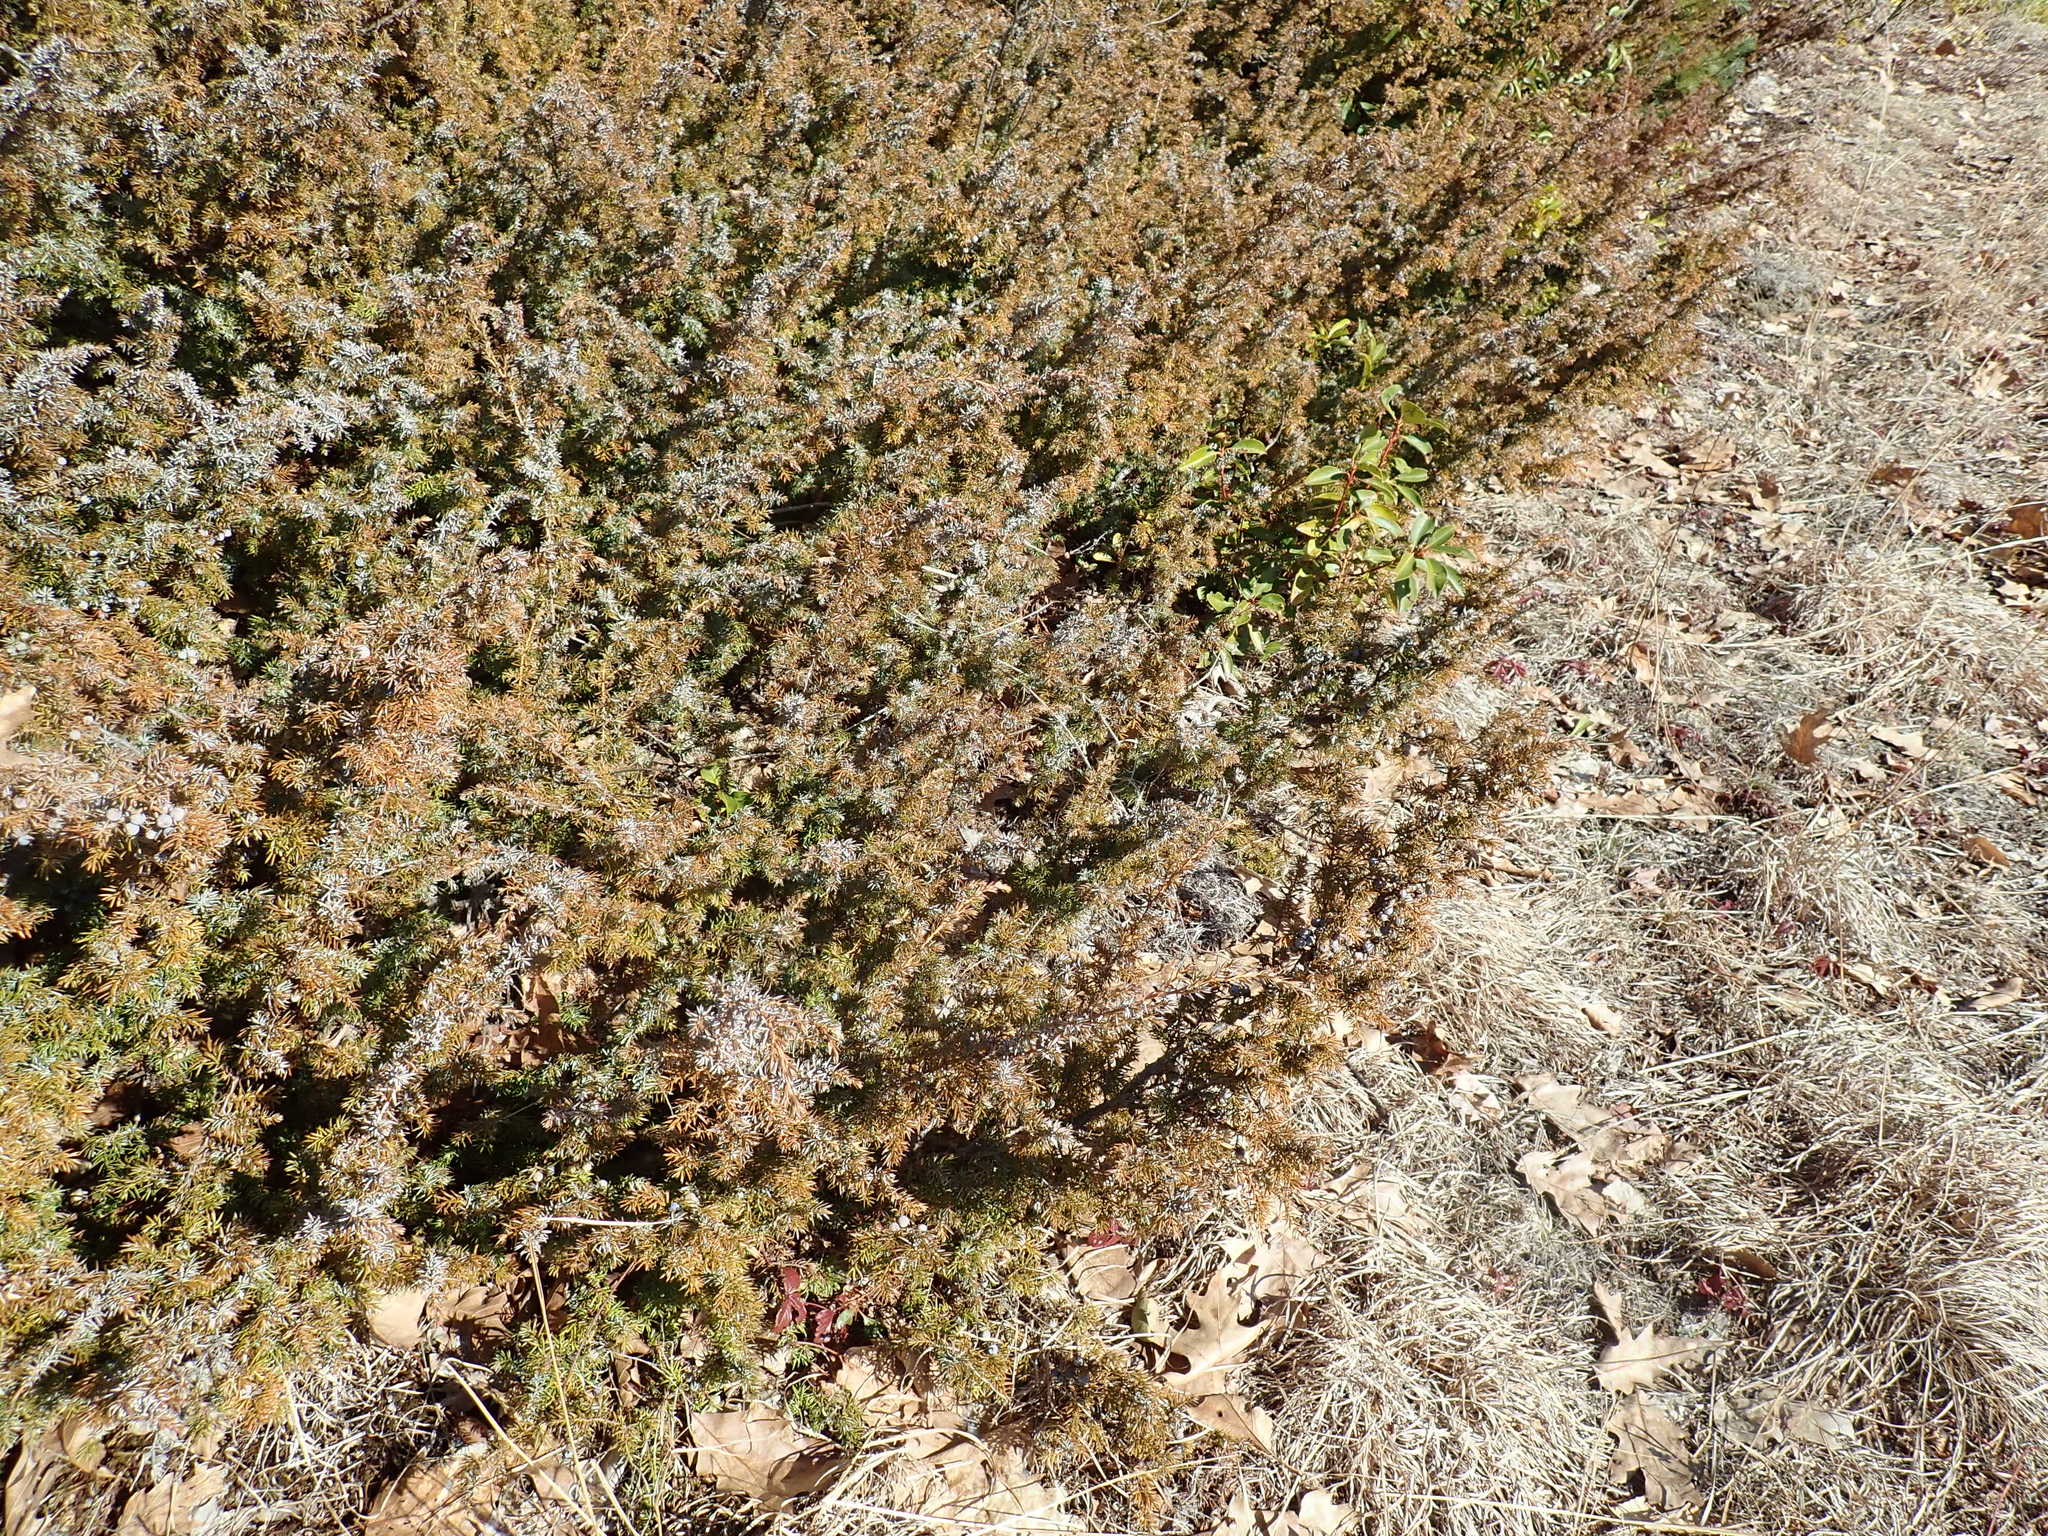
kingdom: Plantae
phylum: Tracheophyta
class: Pinopsida
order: Pinales
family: Cupressaceae
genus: Juniperus
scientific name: Juniperus communis
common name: Common juniper
